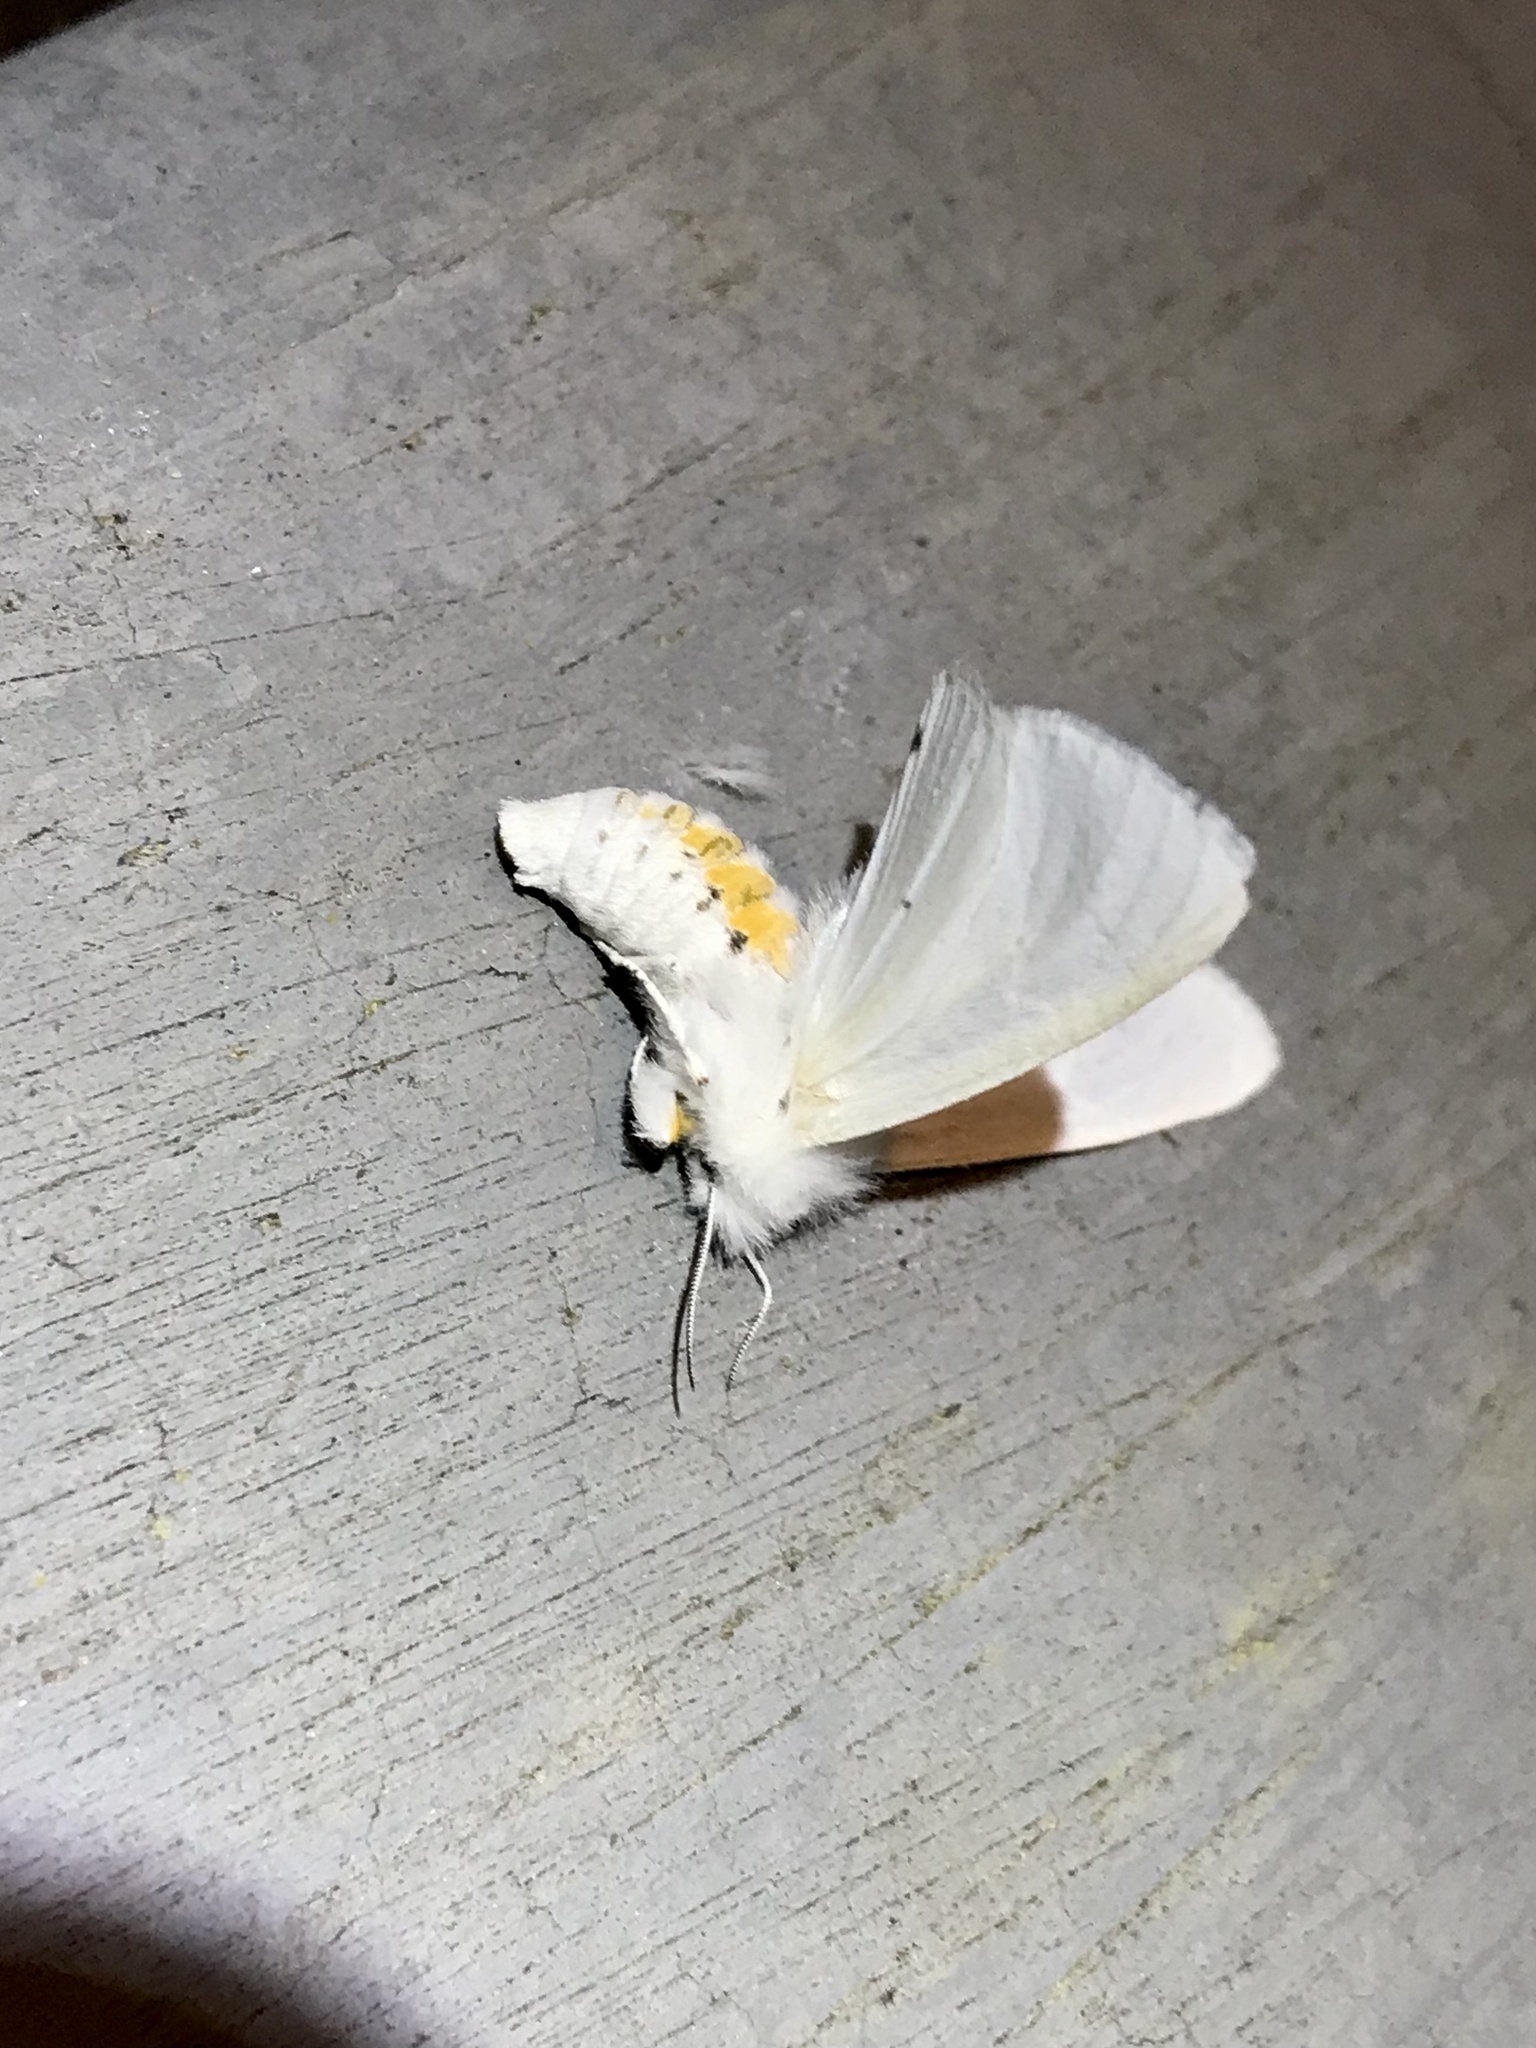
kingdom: Animalia
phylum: Arthropoda
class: Insecta
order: Lepidoptera
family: Erebidae
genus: Spilosoma
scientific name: Spilosoma virginica
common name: Virginia tiger moth
